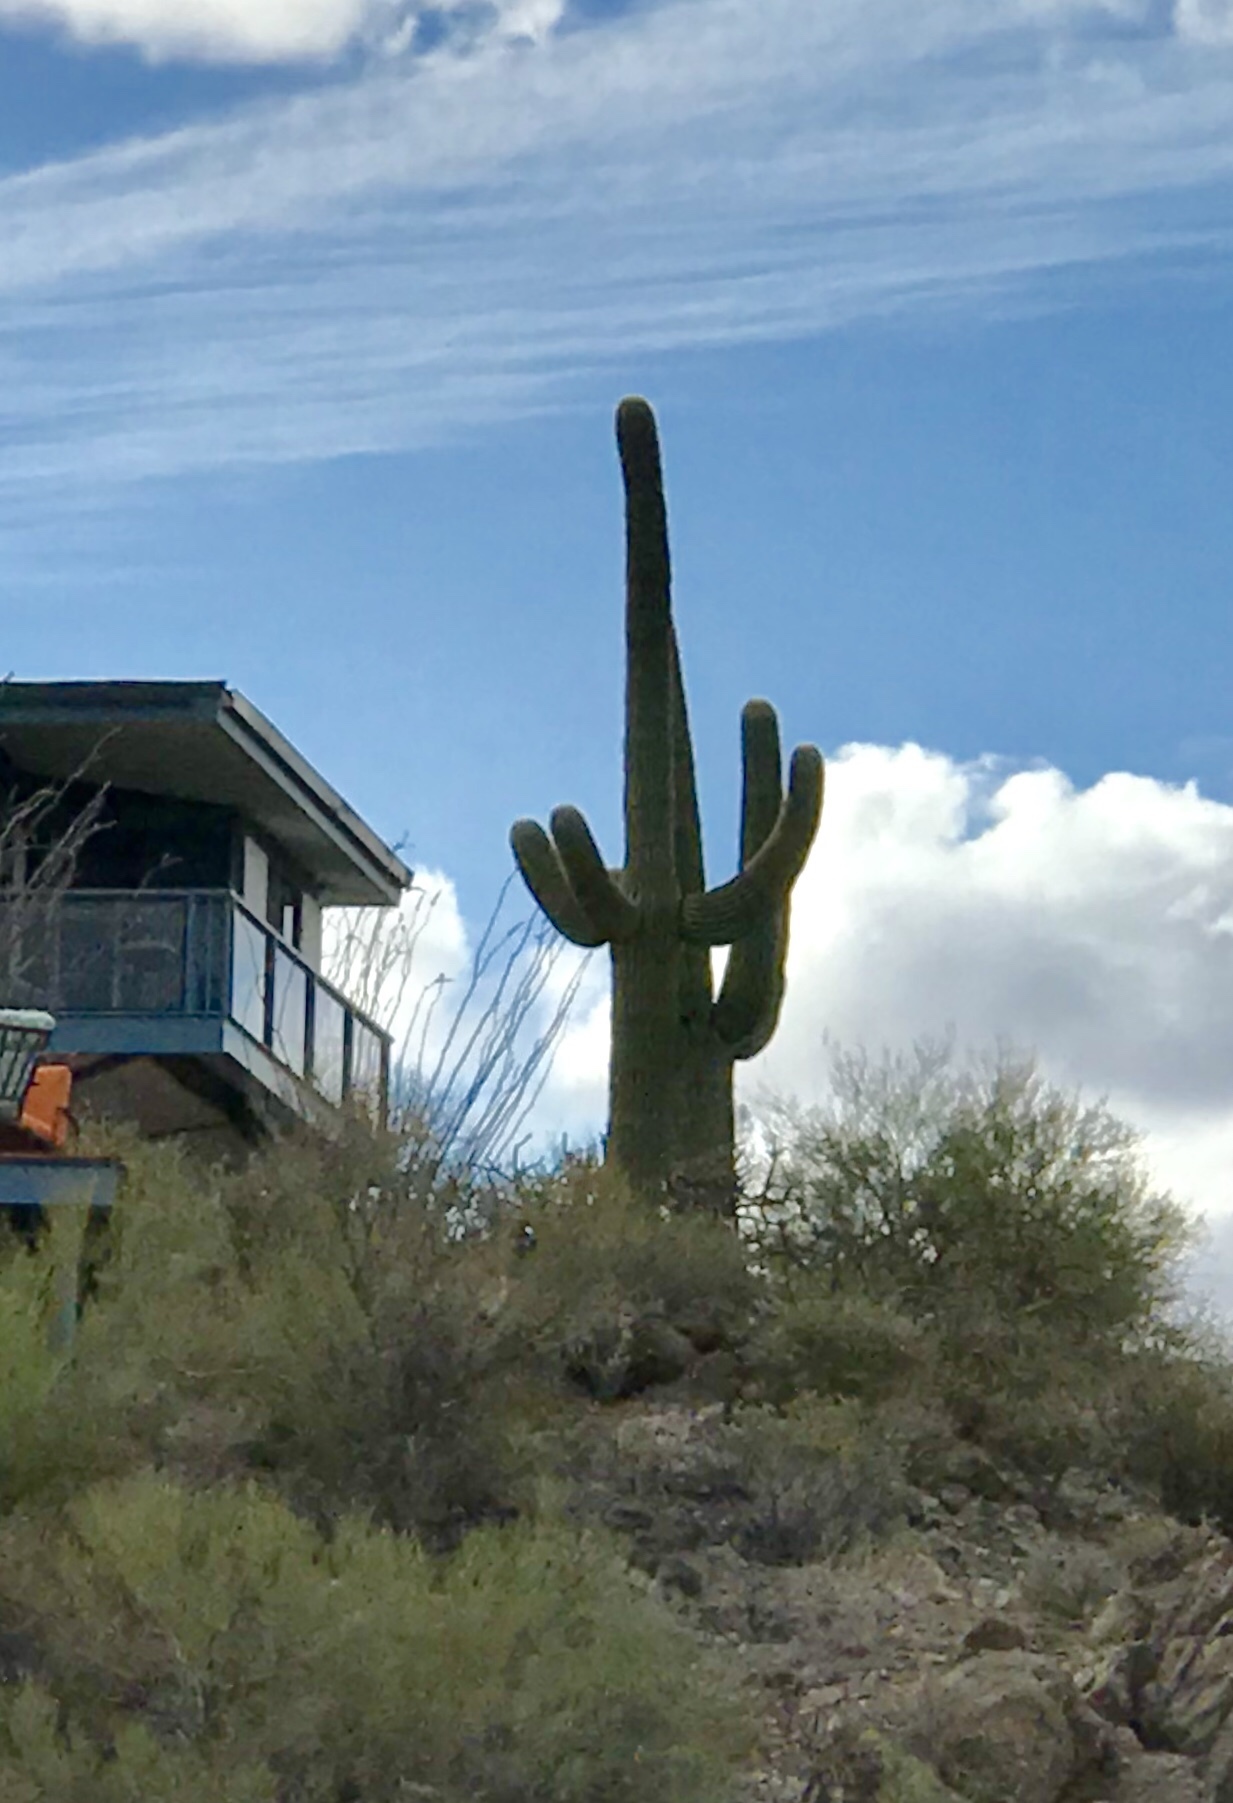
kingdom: Plantae
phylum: Tracheophyta
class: Magnoliopsida
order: Caryophyllales
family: Cactaceae
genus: Carnegiea
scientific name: Carnegiea gigantea
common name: Saguaro
